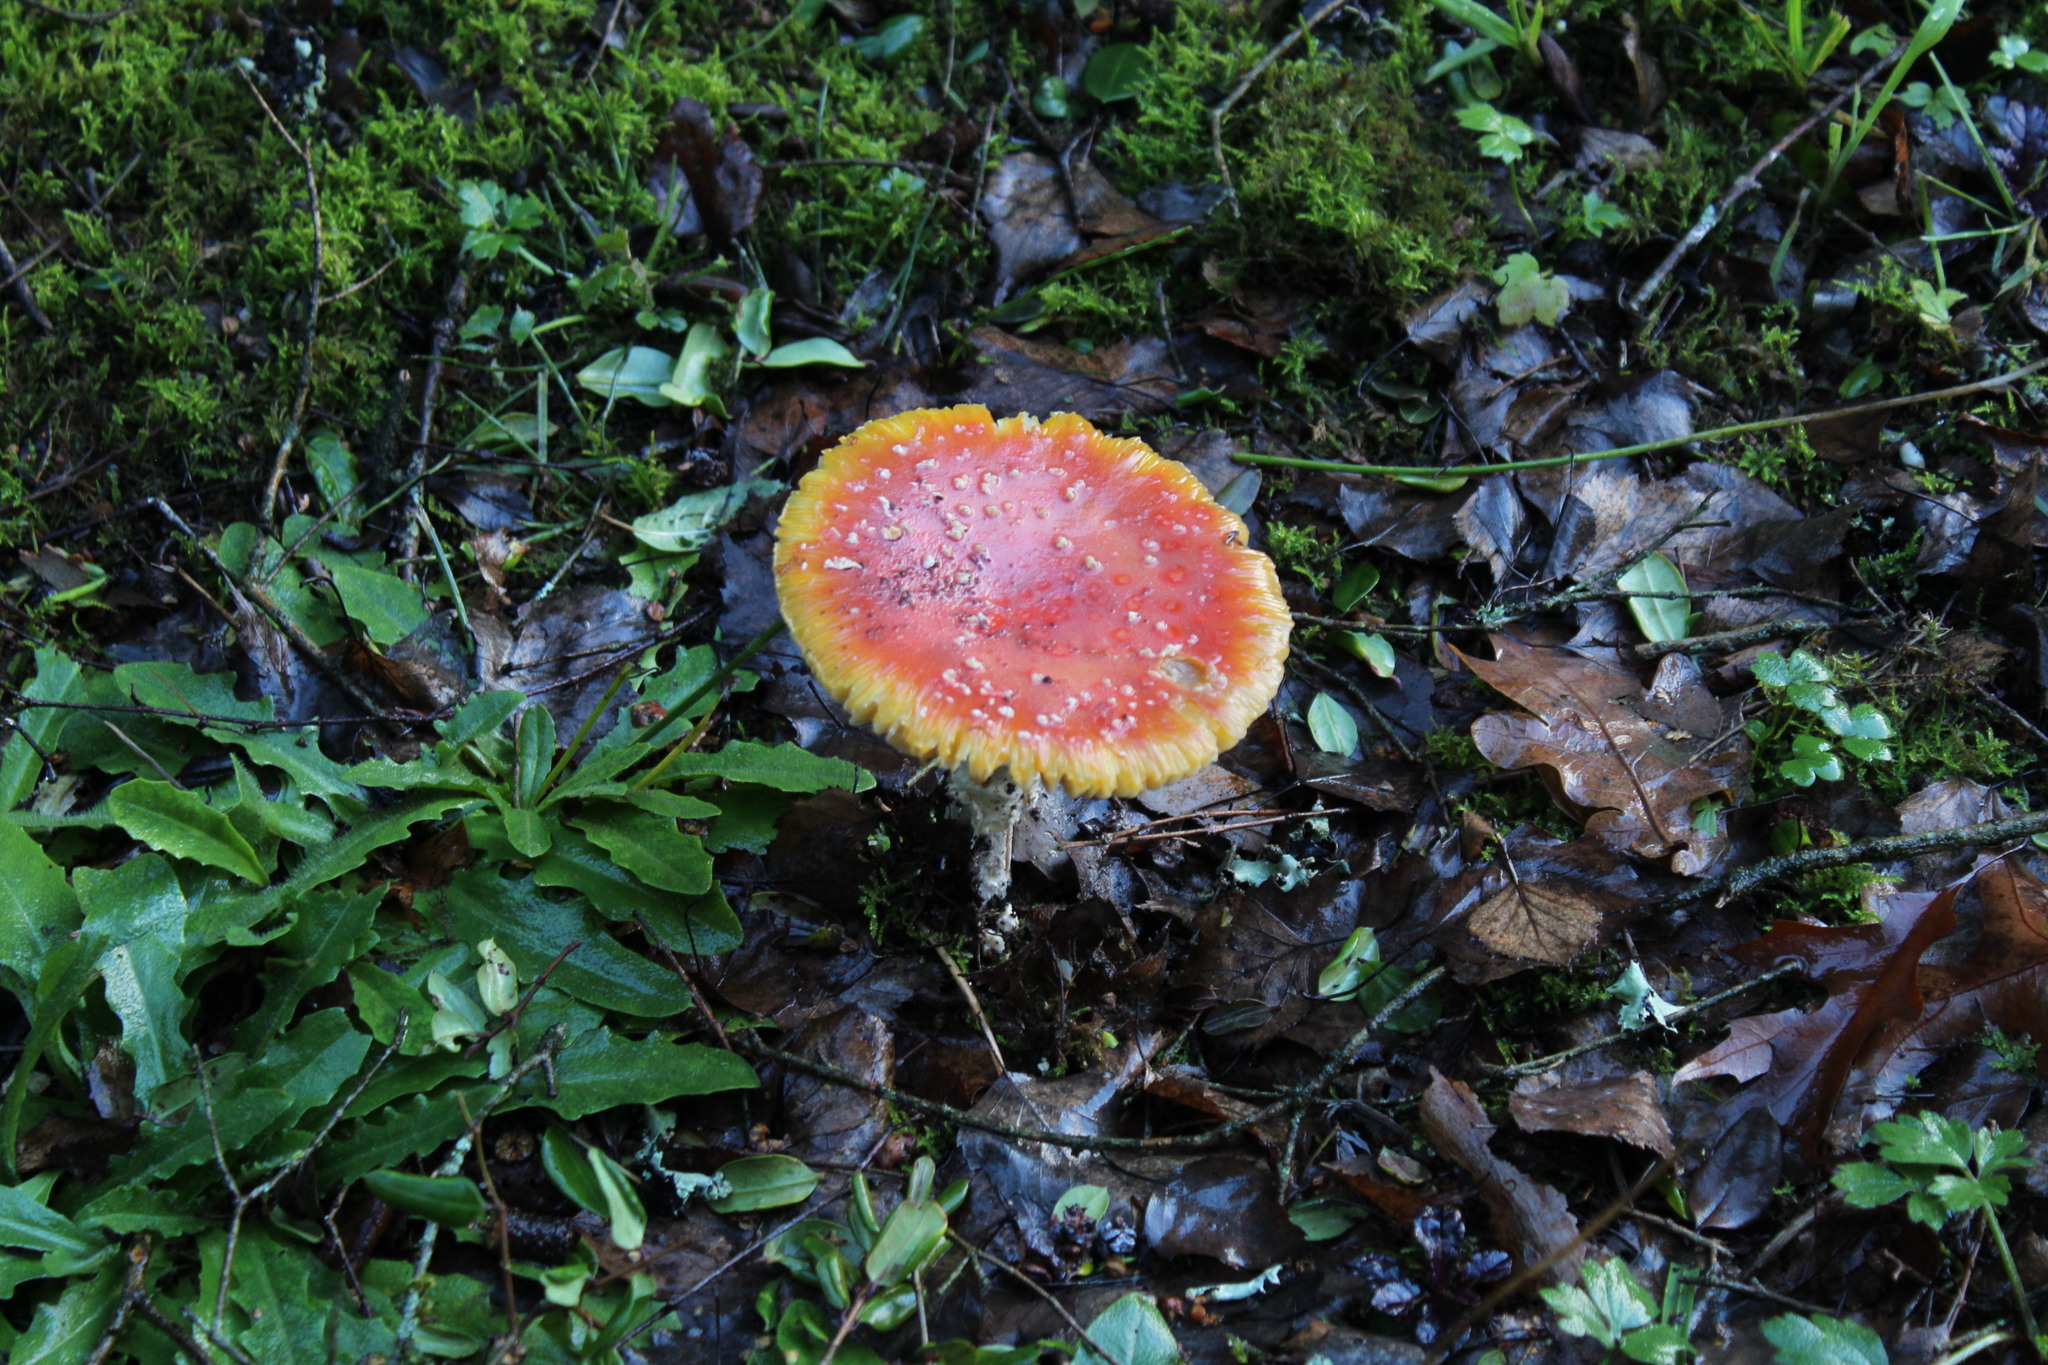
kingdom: Fungi
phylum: Basidiomycota
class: Agaricomycetes
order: Agaricales
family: Amanitaceae
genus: Amanita
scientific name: Amanita muscaria
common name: Fly agaric
